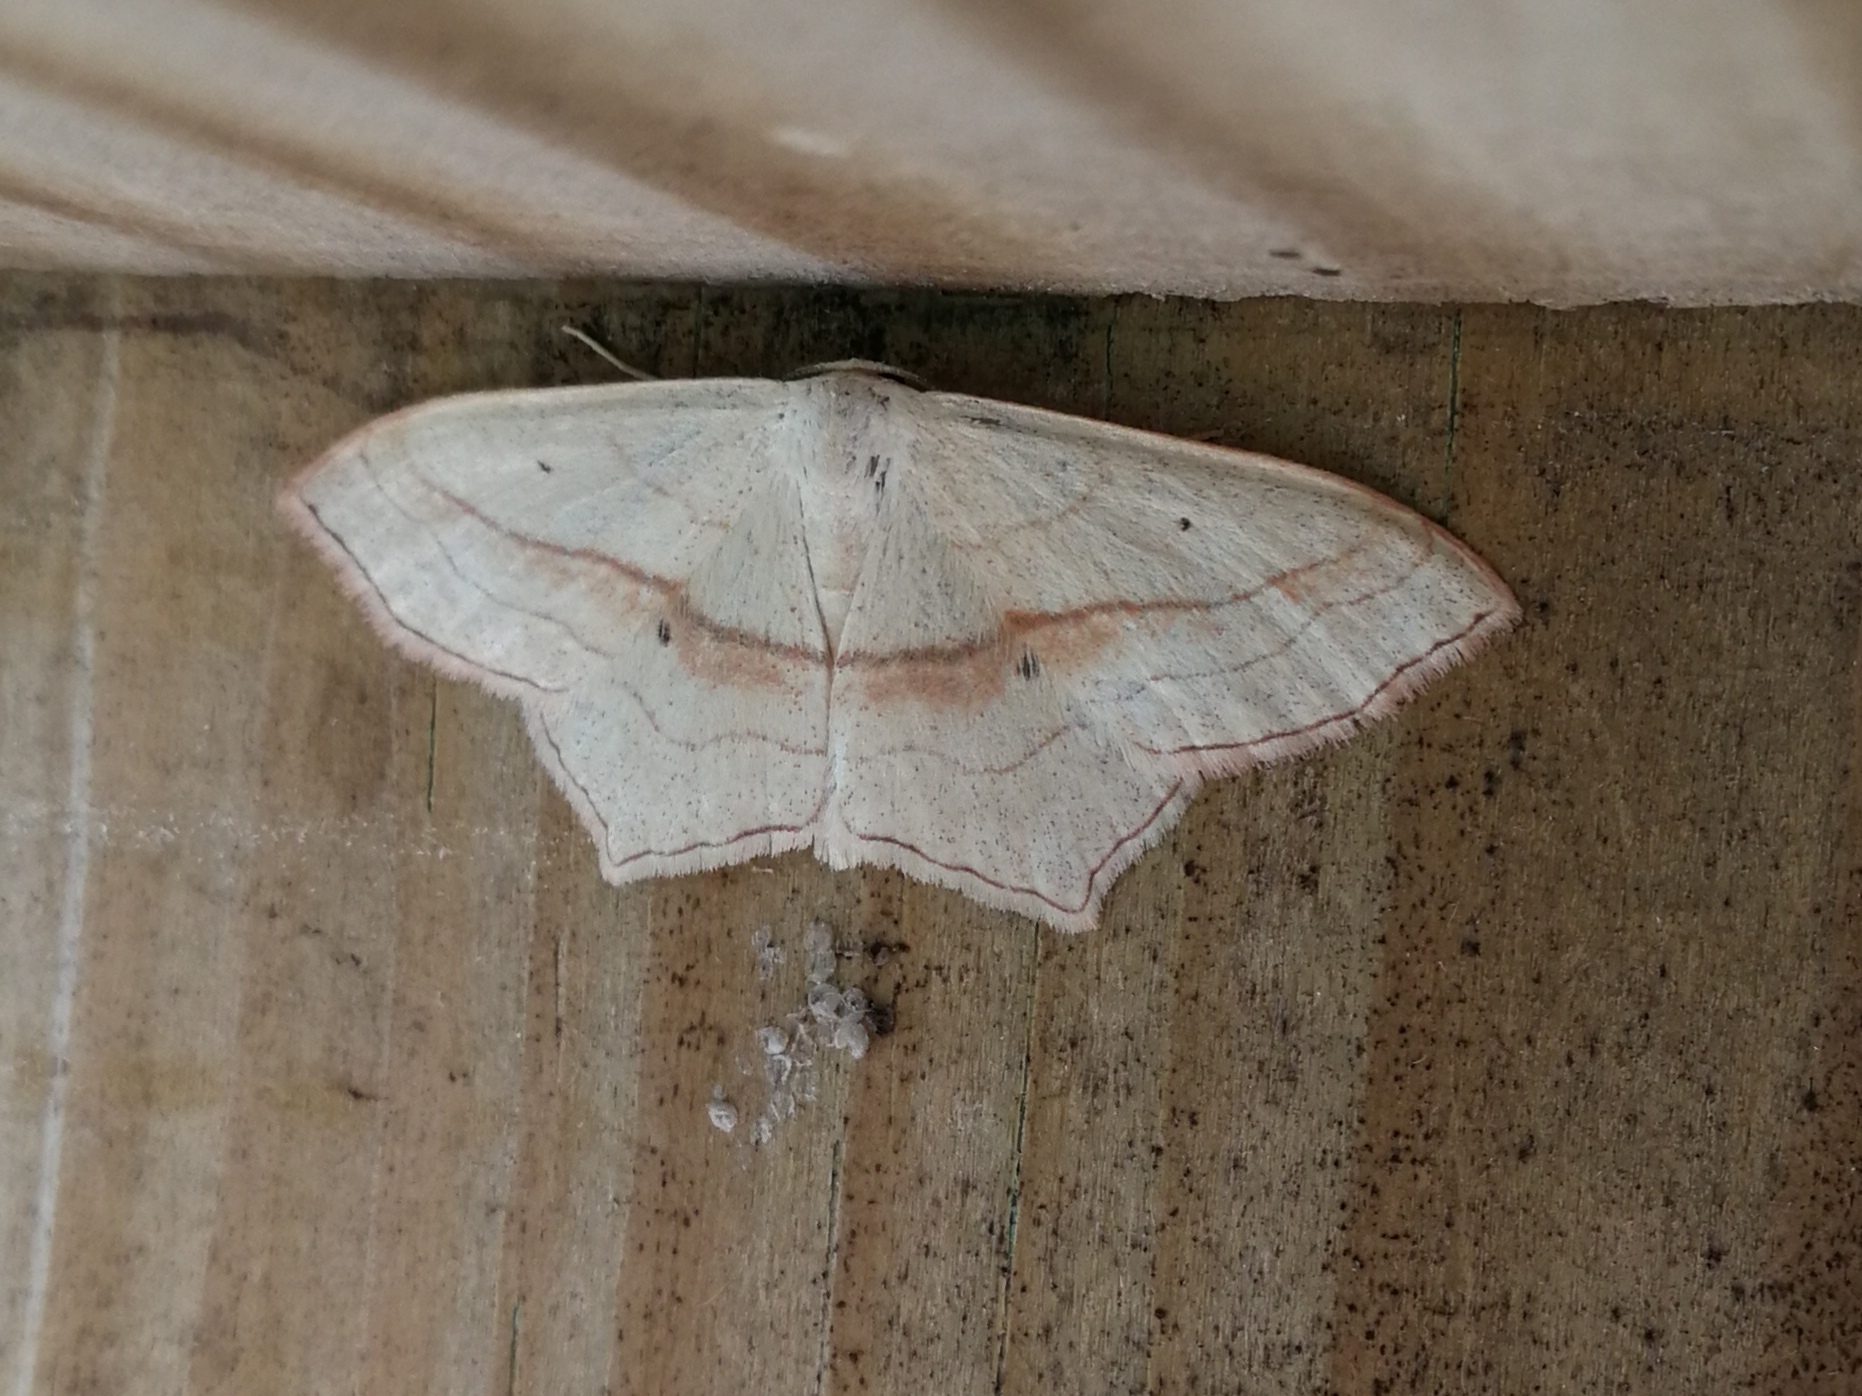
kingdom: Animalia
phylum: Arthropoda
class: Insecta
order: Lepidoptera
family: Geometridae
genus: Scopula
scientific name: Scopula imitaria
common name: Small blood-vein
